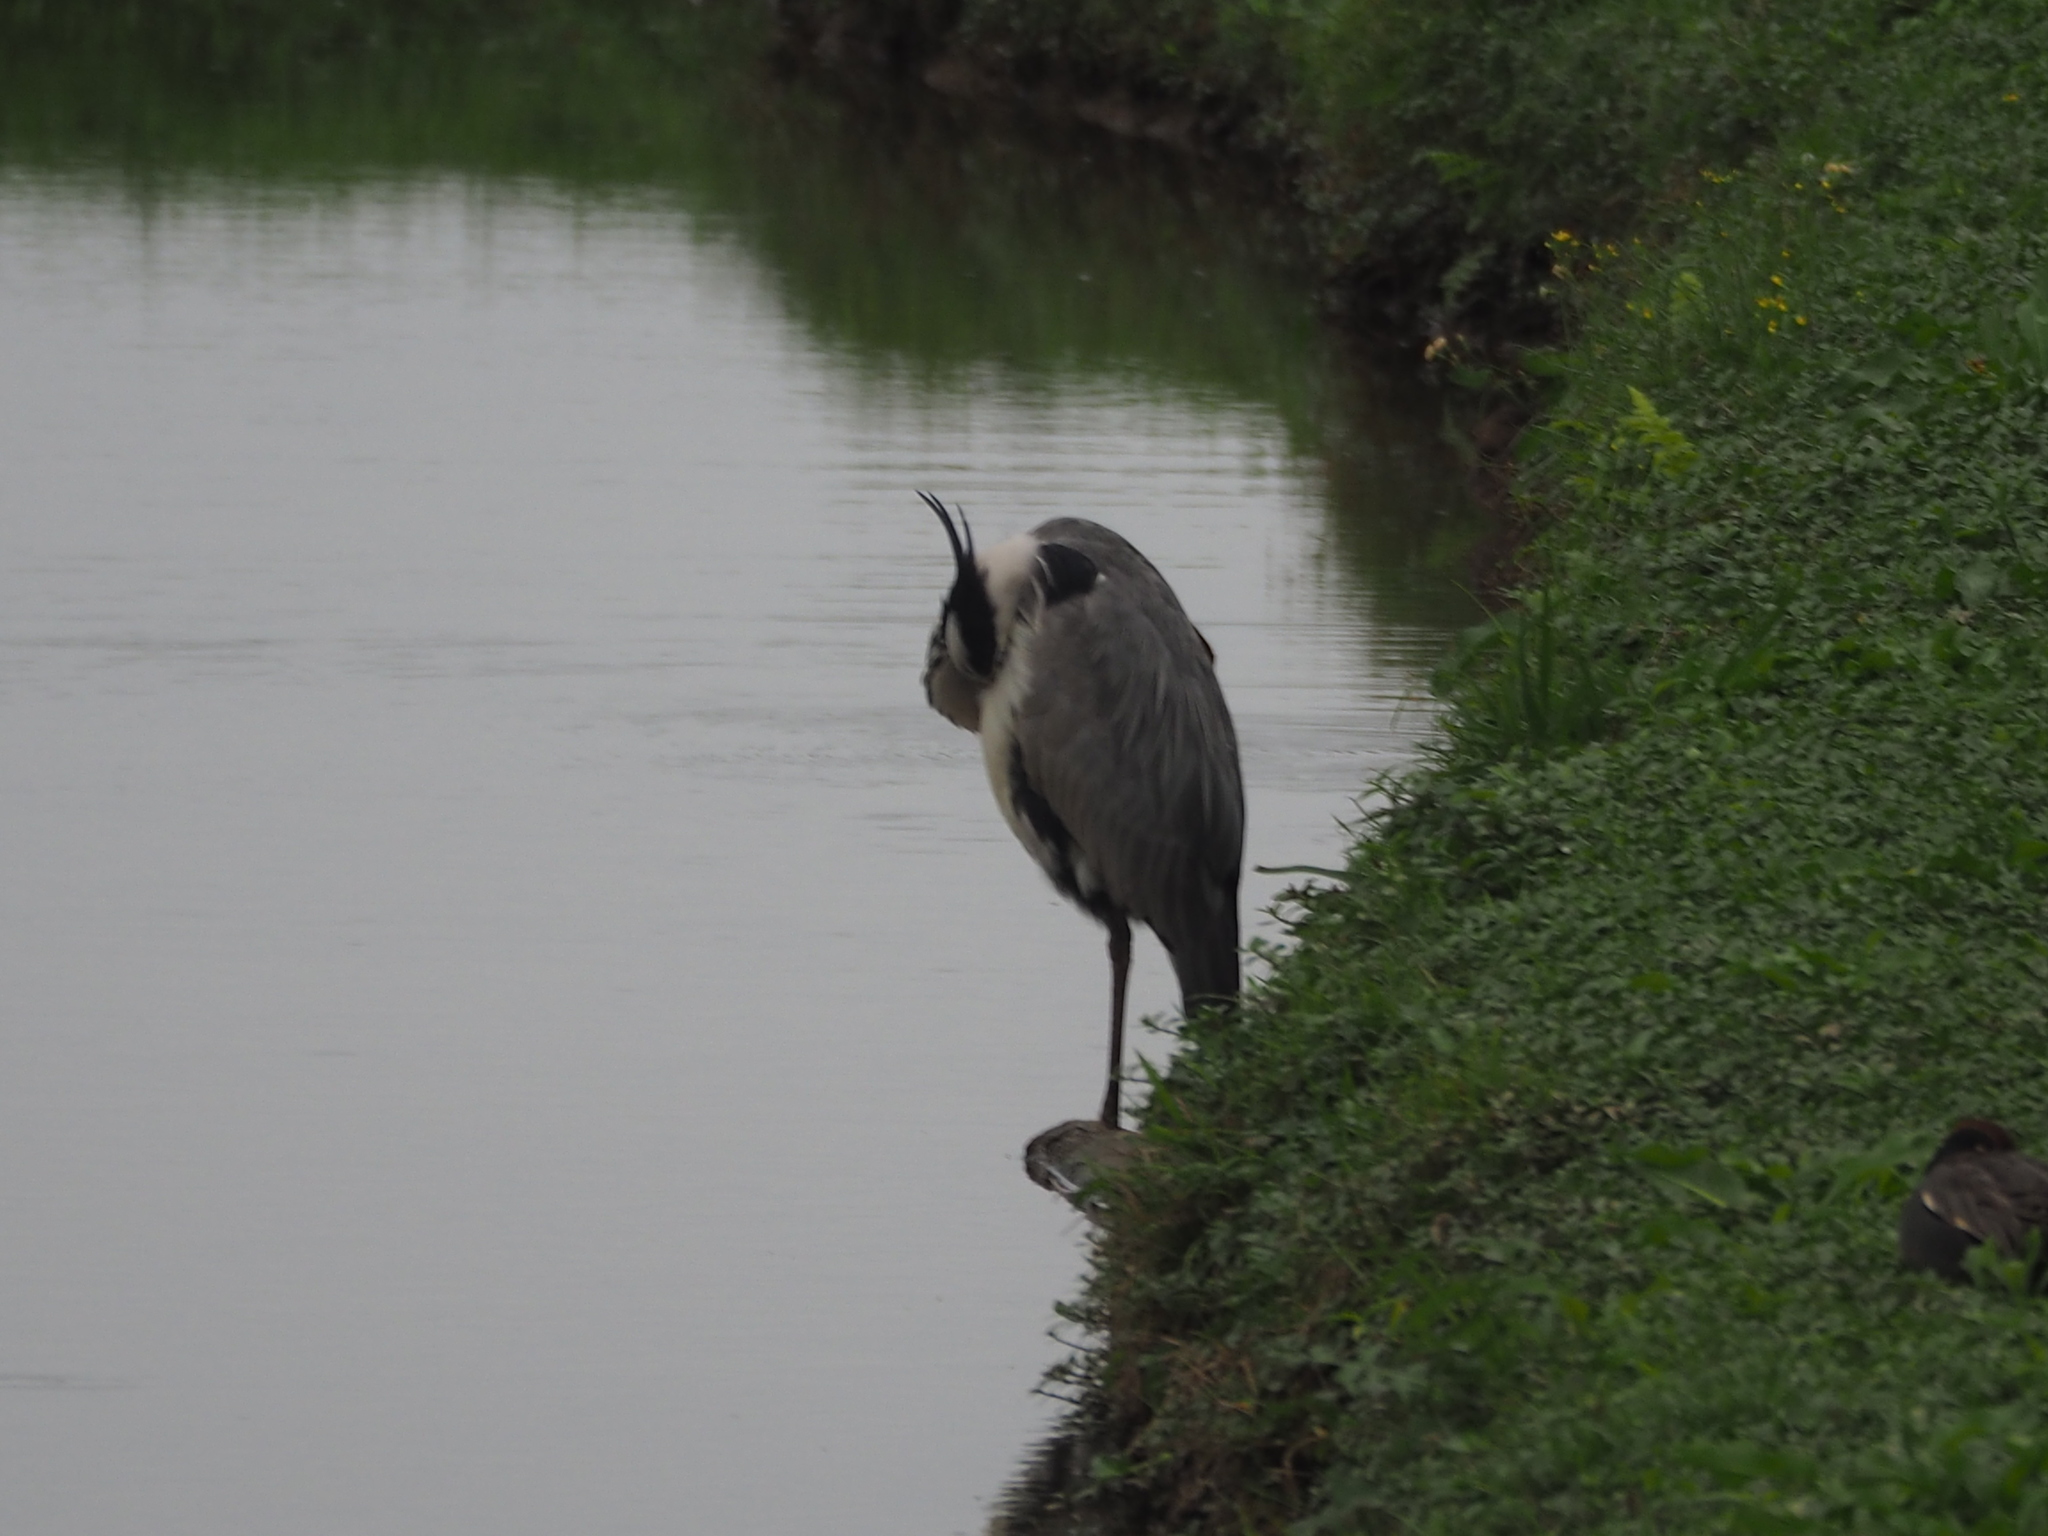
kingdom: Animalia
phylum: Chordata
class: Aves
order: Pelecaniformes
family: Ardeidae
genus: Ardea
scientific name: Ardea cinerea
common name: Grey heron
